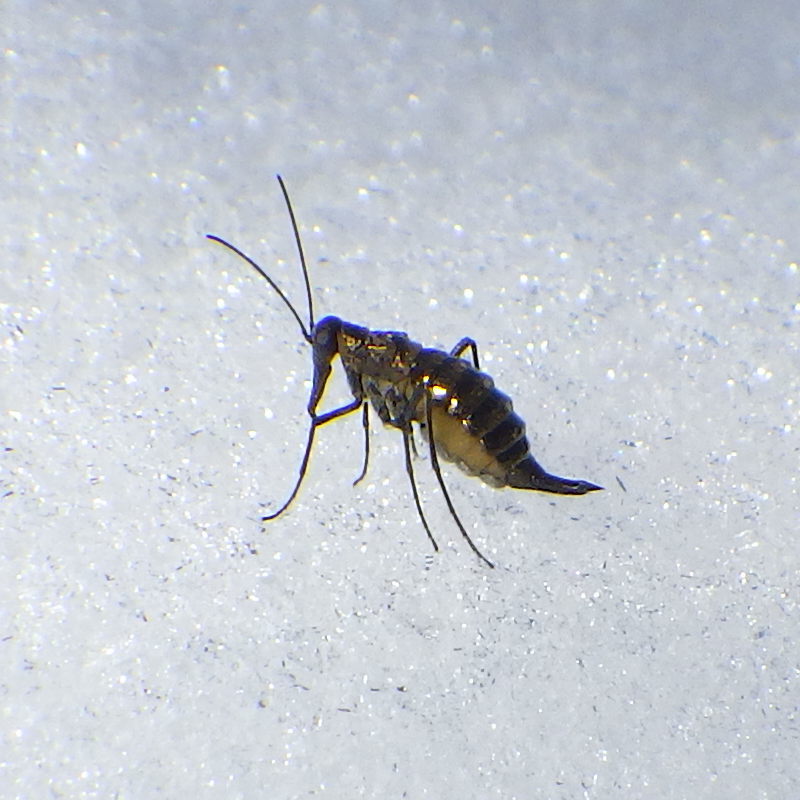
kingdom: Animalia
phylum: Arthropoda
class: Insecta
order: Mecoptera
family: Boreidae
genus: Boreus
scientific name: Boreus brumalis
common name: Mid-winter boreus
